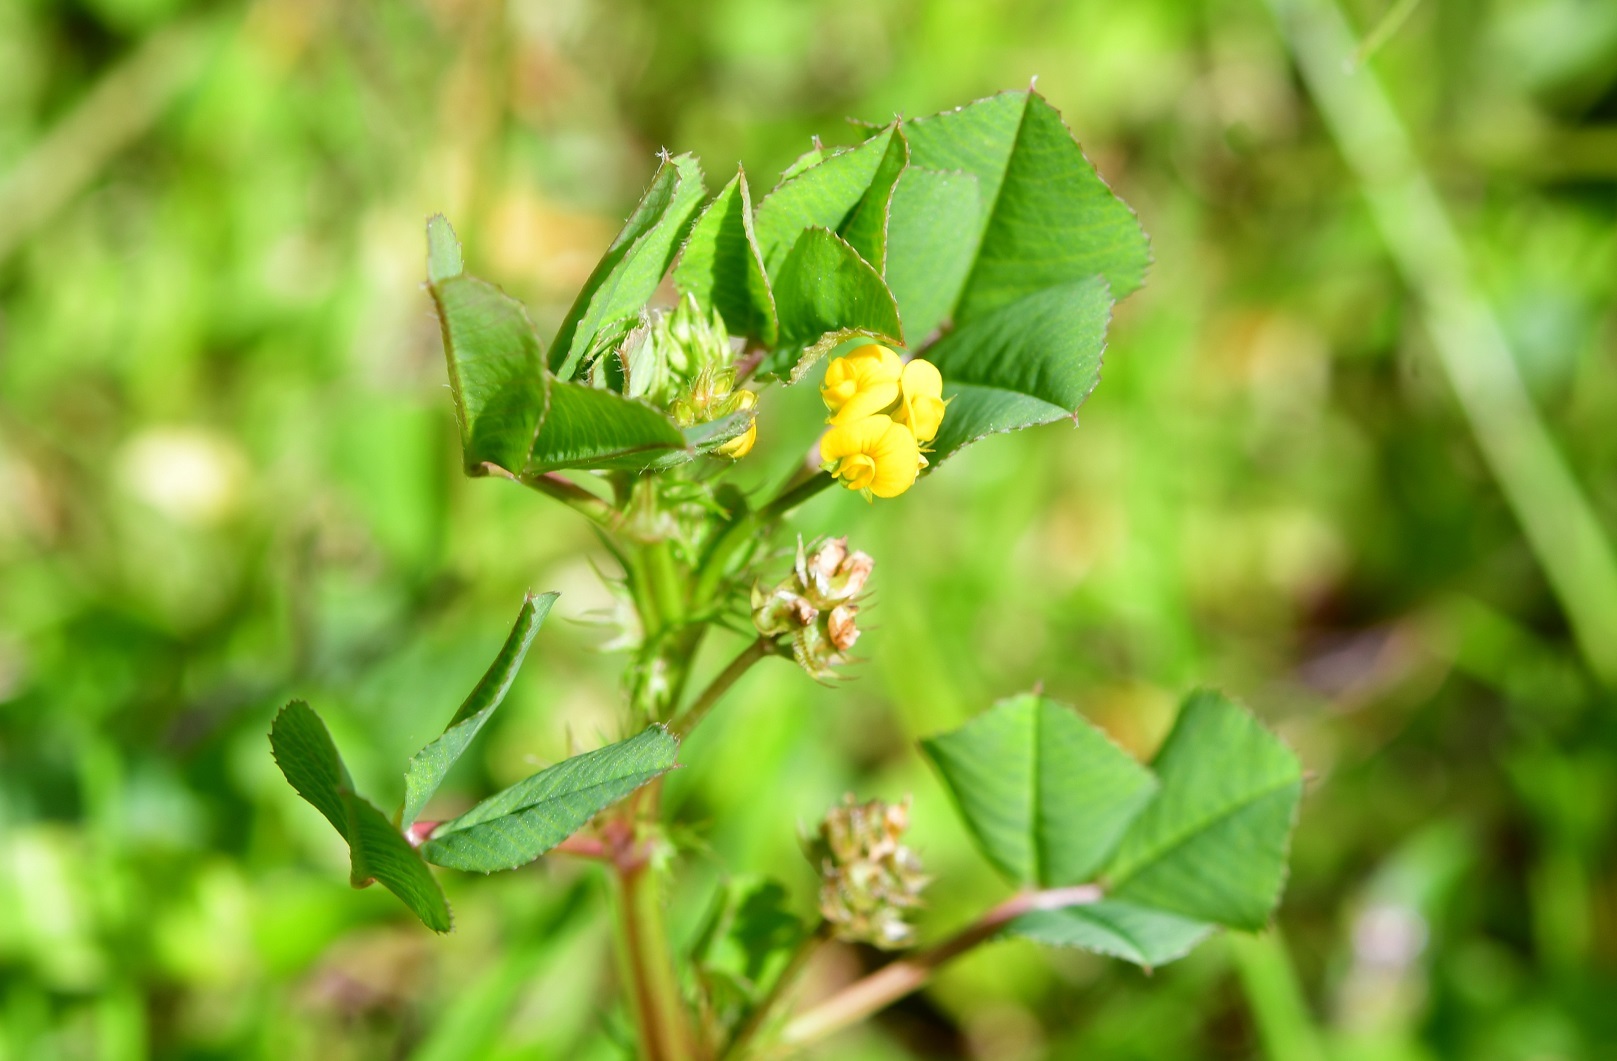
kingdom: Plantae
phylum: Tracheophyta
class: Magnoliopsida
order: Fabales
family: Fabaceae
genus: Medicago
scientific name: Medicago polymorpha
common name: Burclover
